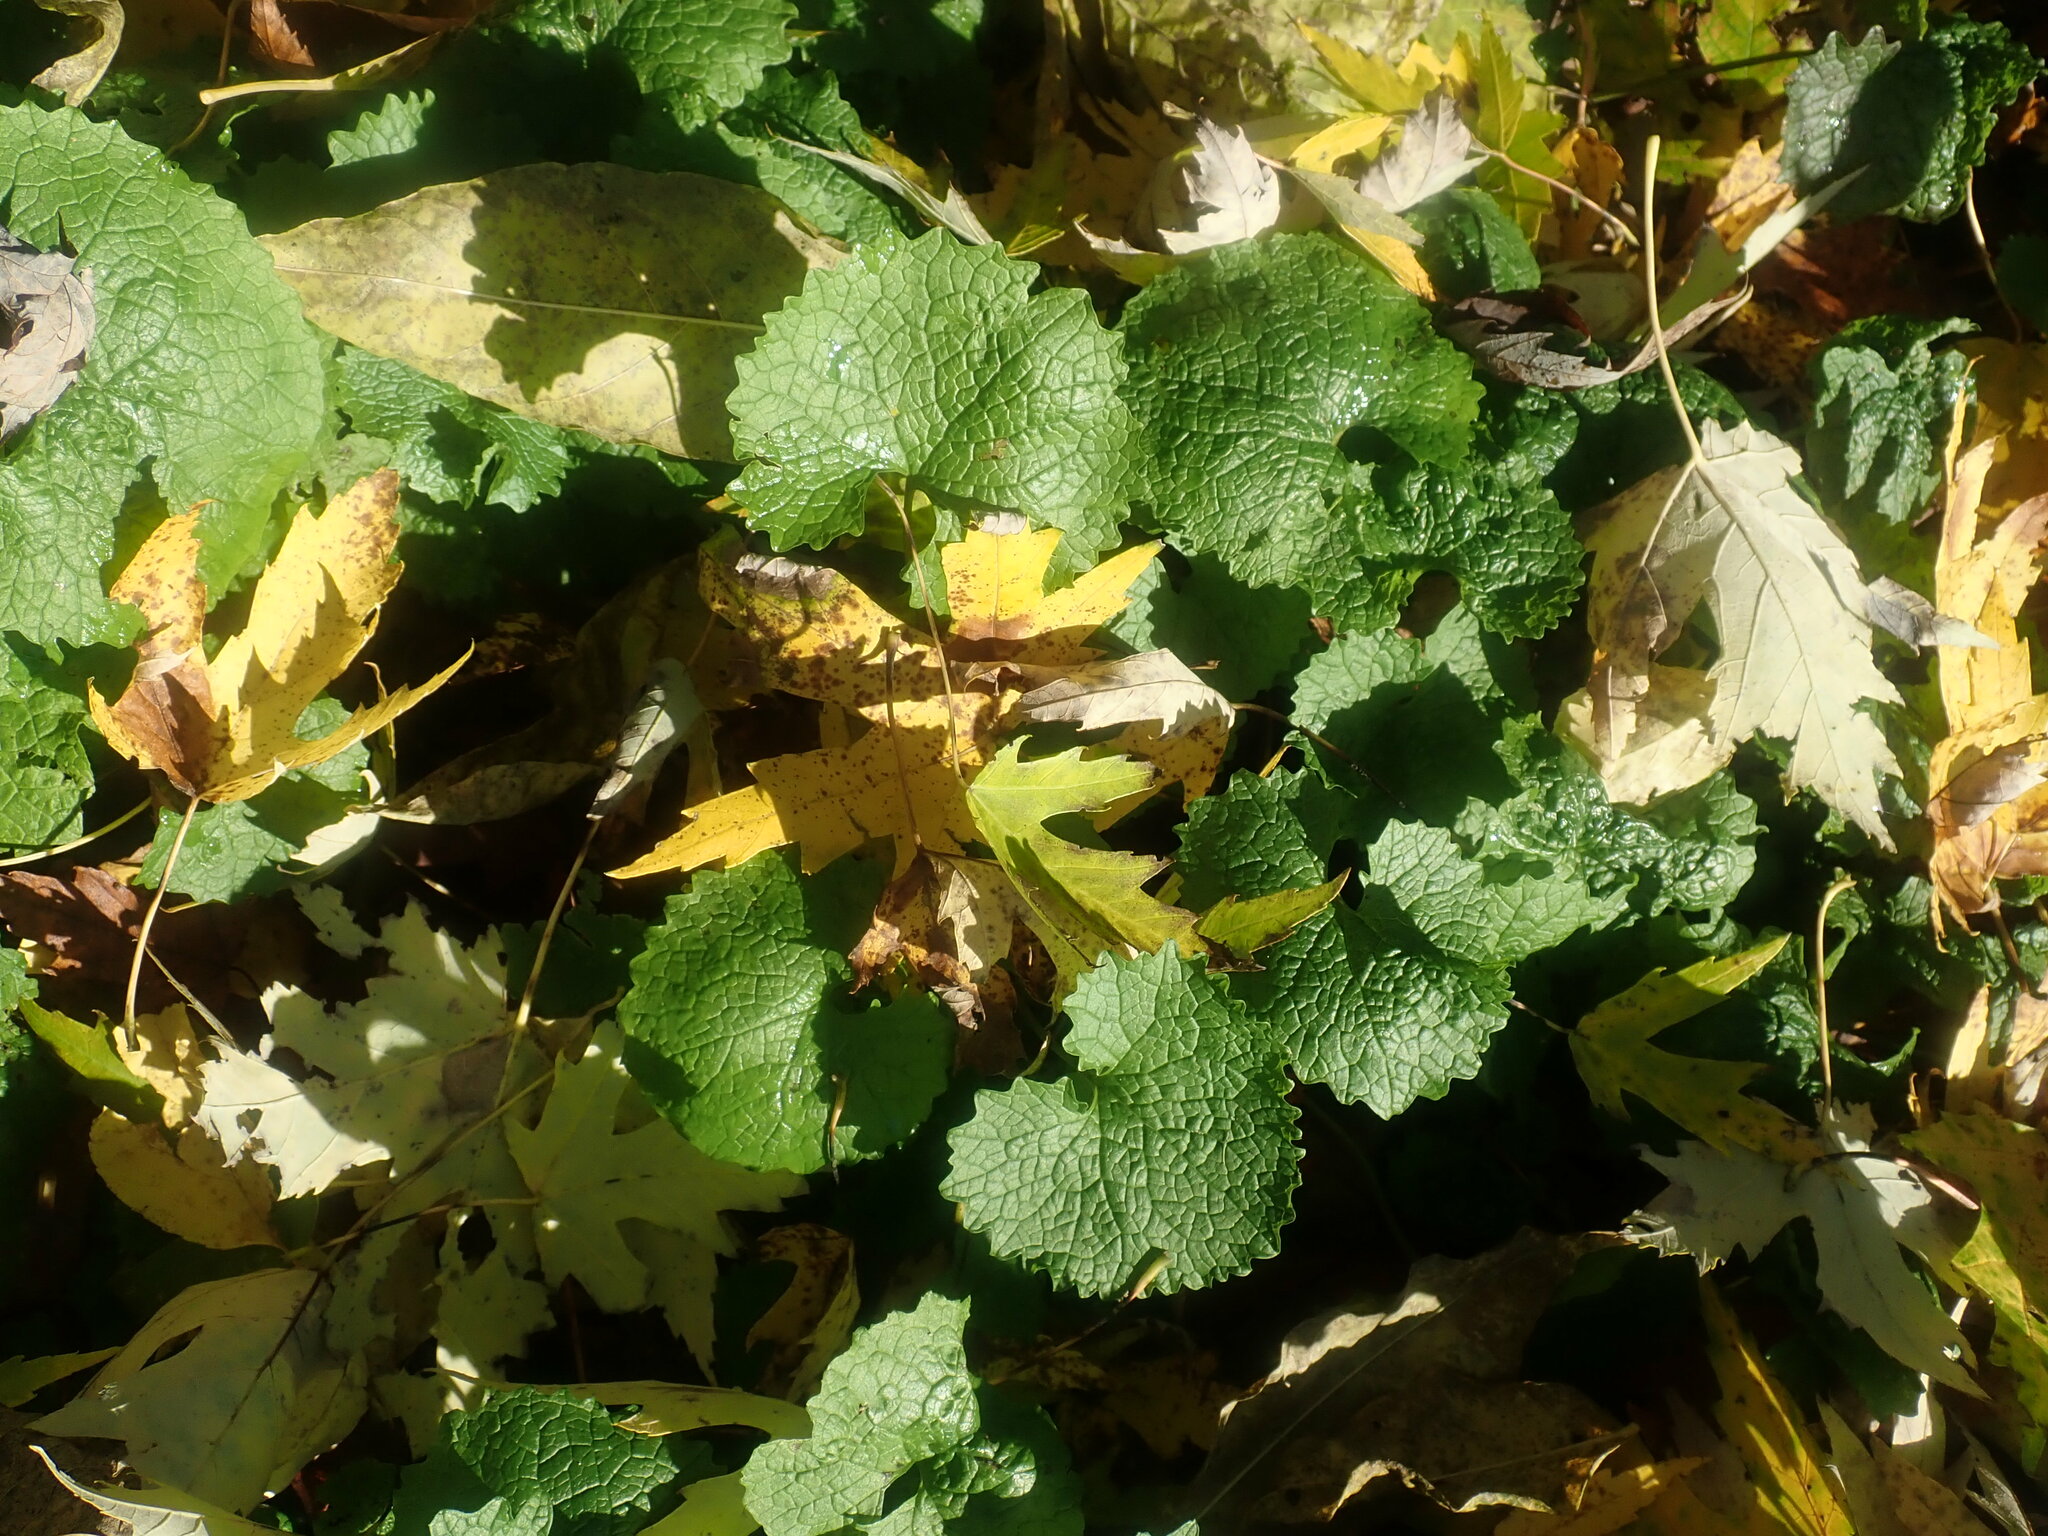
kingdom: Plantae
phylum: Tracheophyta
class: Magnoliopsida
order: Brassicales
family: Brassicaceae
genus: Alliaria
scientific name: Alliaria petiolata
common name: Garlic mustard
